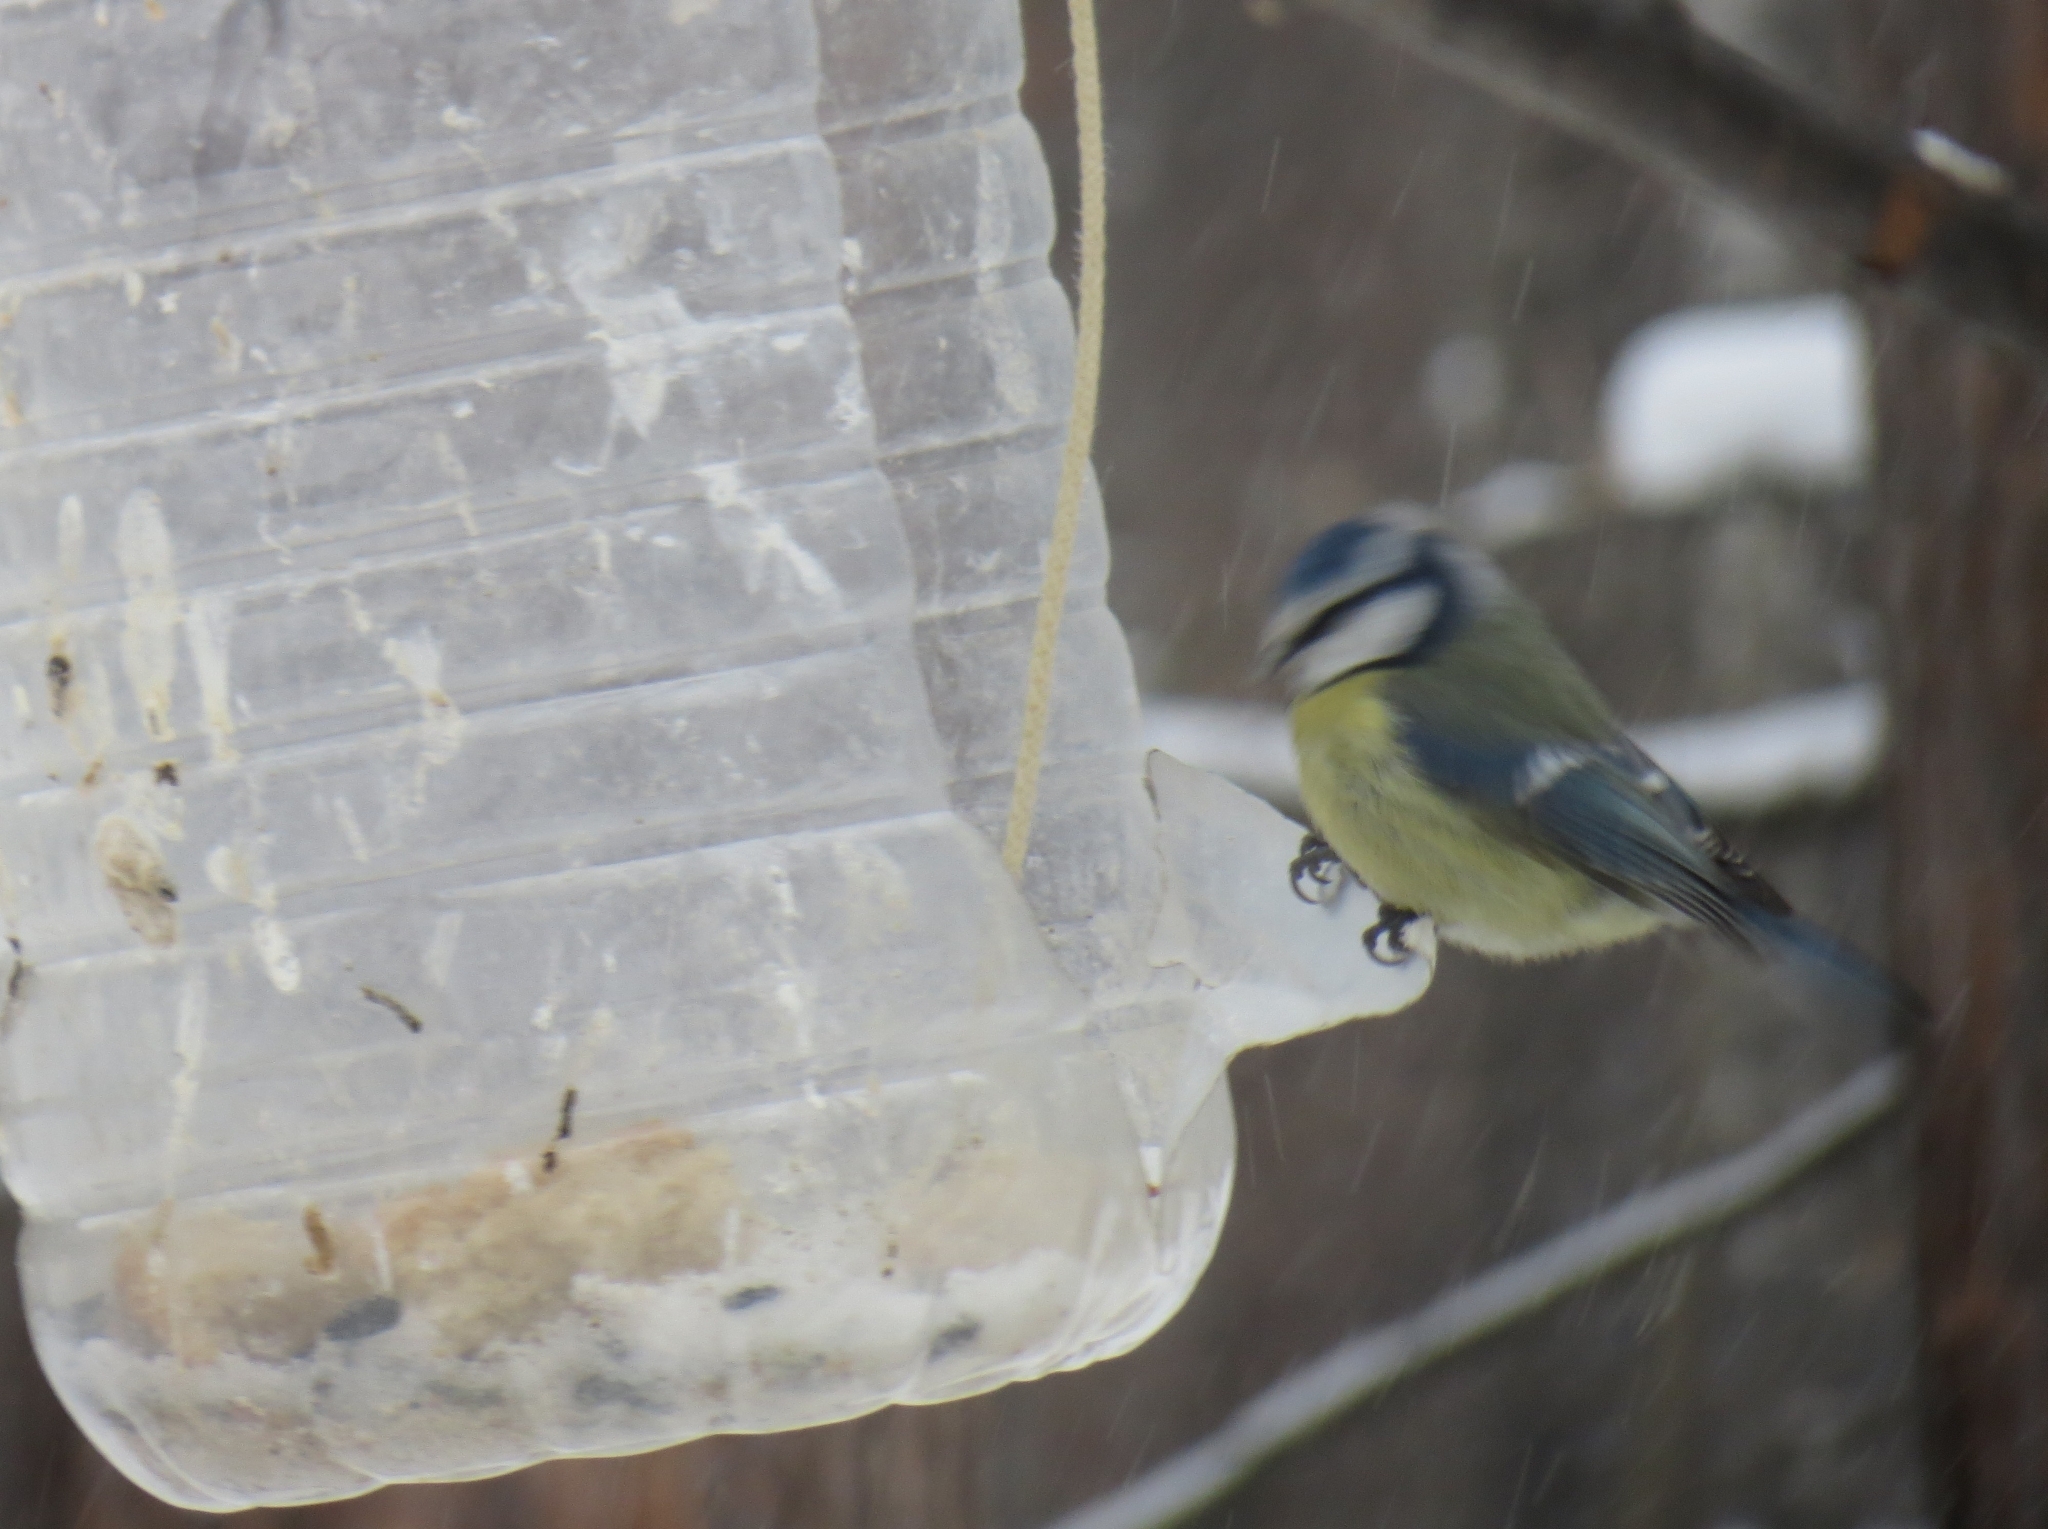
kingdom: Animalia
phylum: Chordata
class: Aves
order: Passeriformes
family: Paridae
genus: Cyanistes
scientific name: Cyanistes caeruleus
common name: Eurasian blue tit
